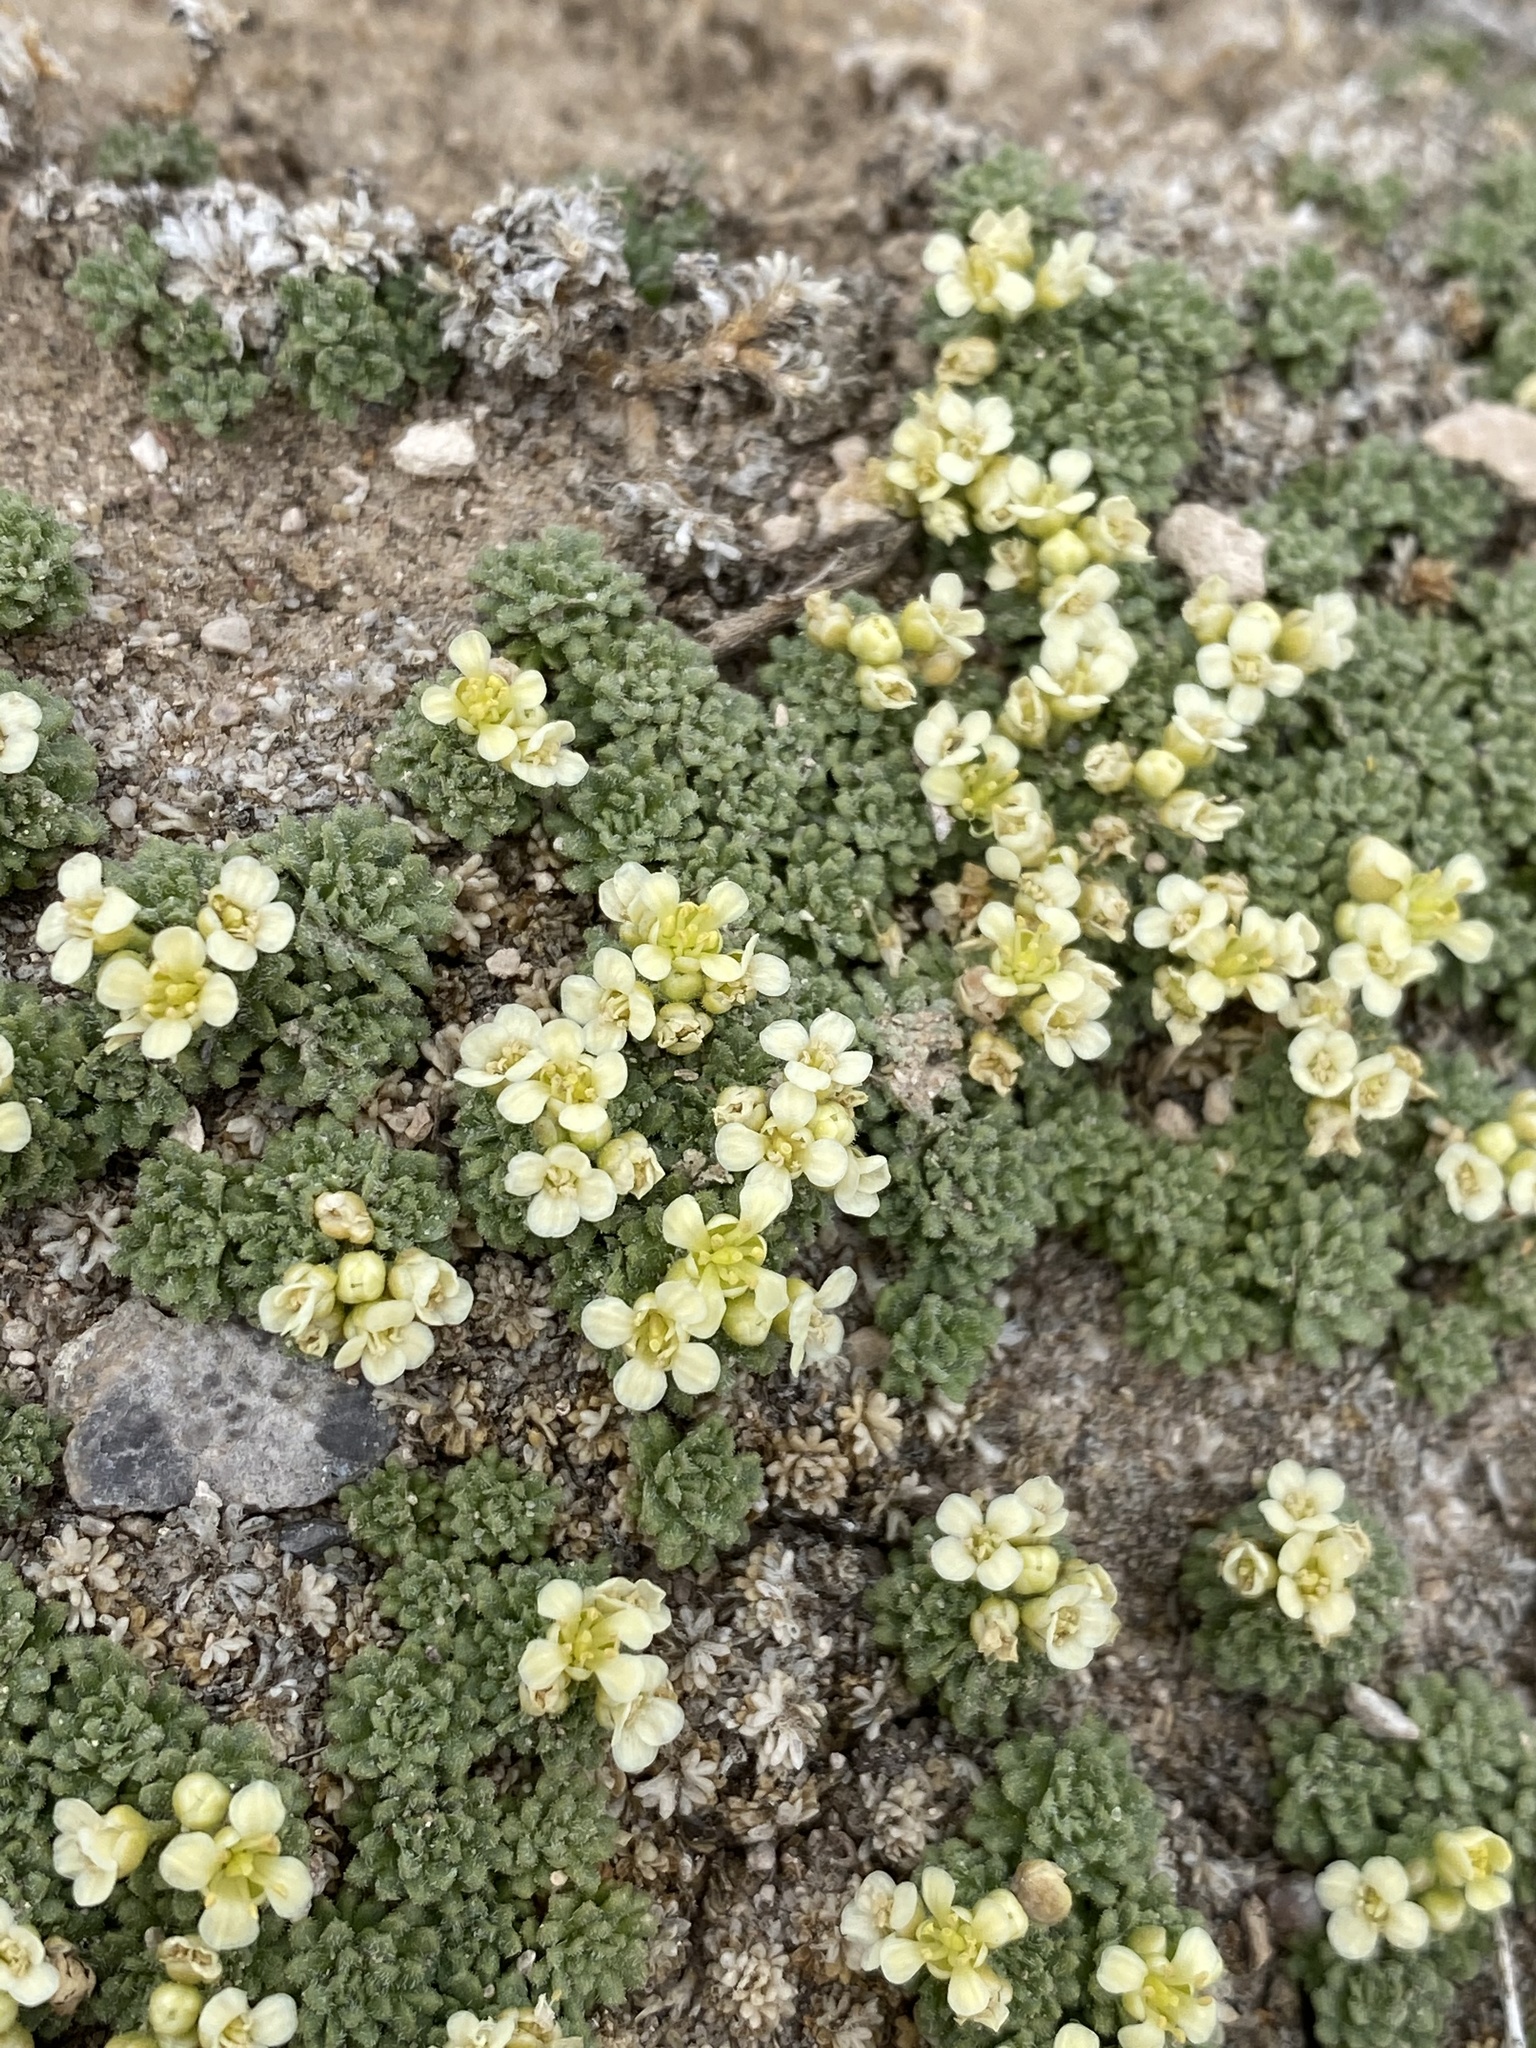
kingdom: Plantae
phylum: Tracheophyta
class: Magnoliopsida
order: Brassicales
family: Brassicaceae
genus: Lepidium
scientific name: Lepidium nanum
